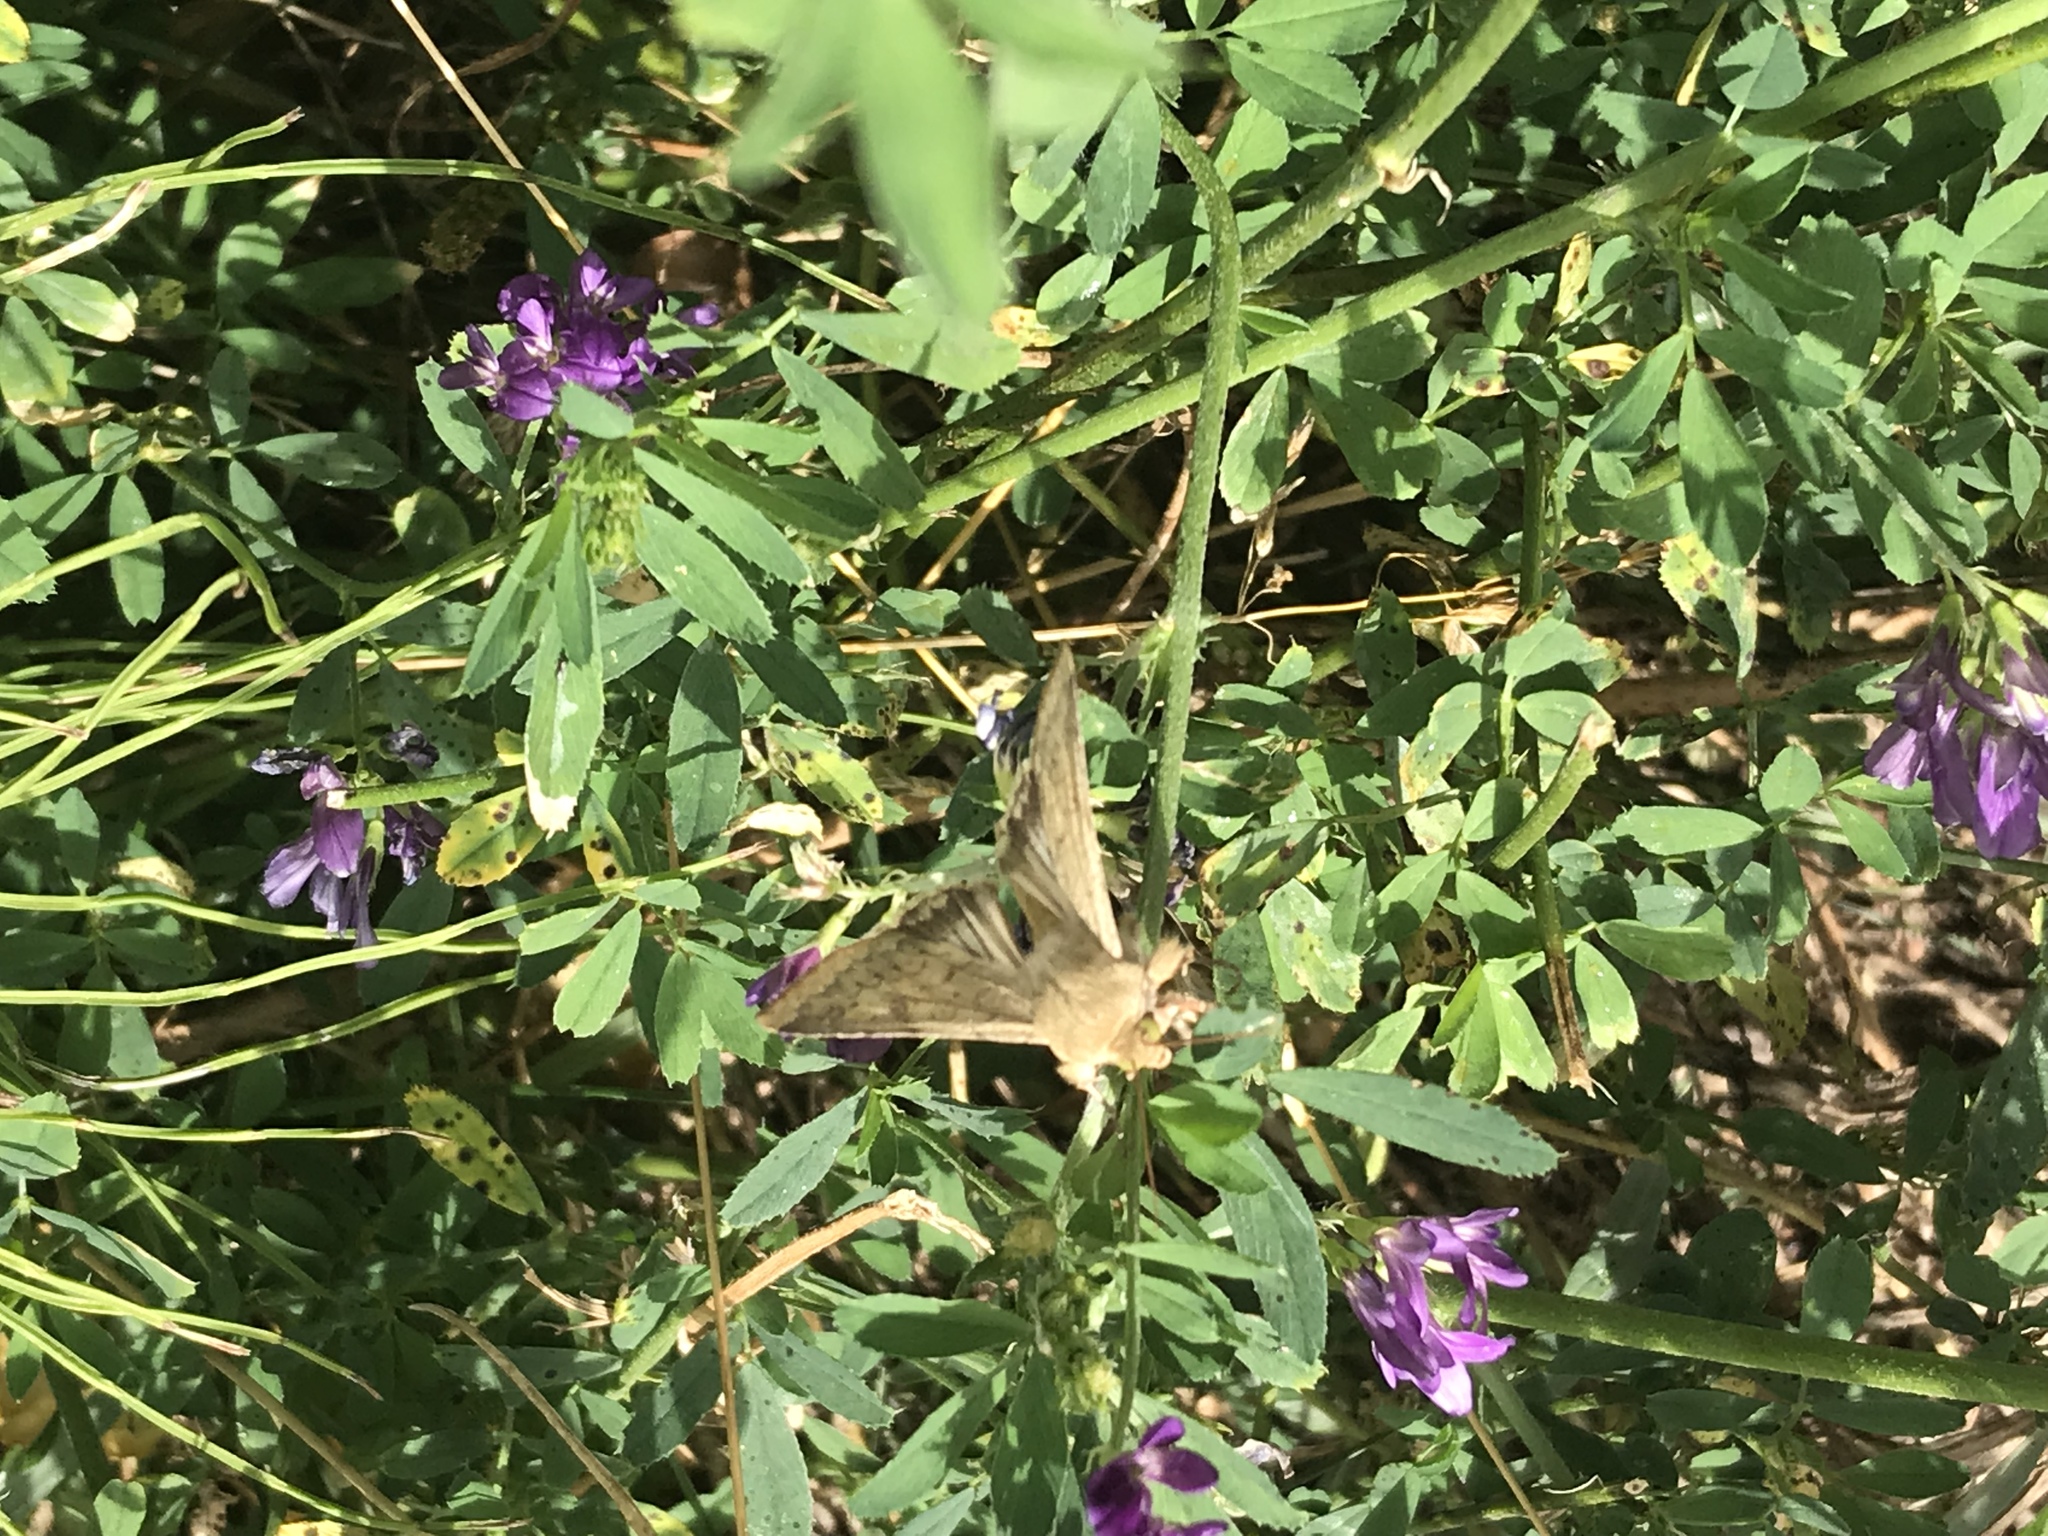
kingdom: Animalia
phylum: Arthropoda
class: Insecta
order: Lepidoptera
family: Noctuidae
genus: Helicoverpa
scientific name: Helicoverpa zea
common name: Bollworm
